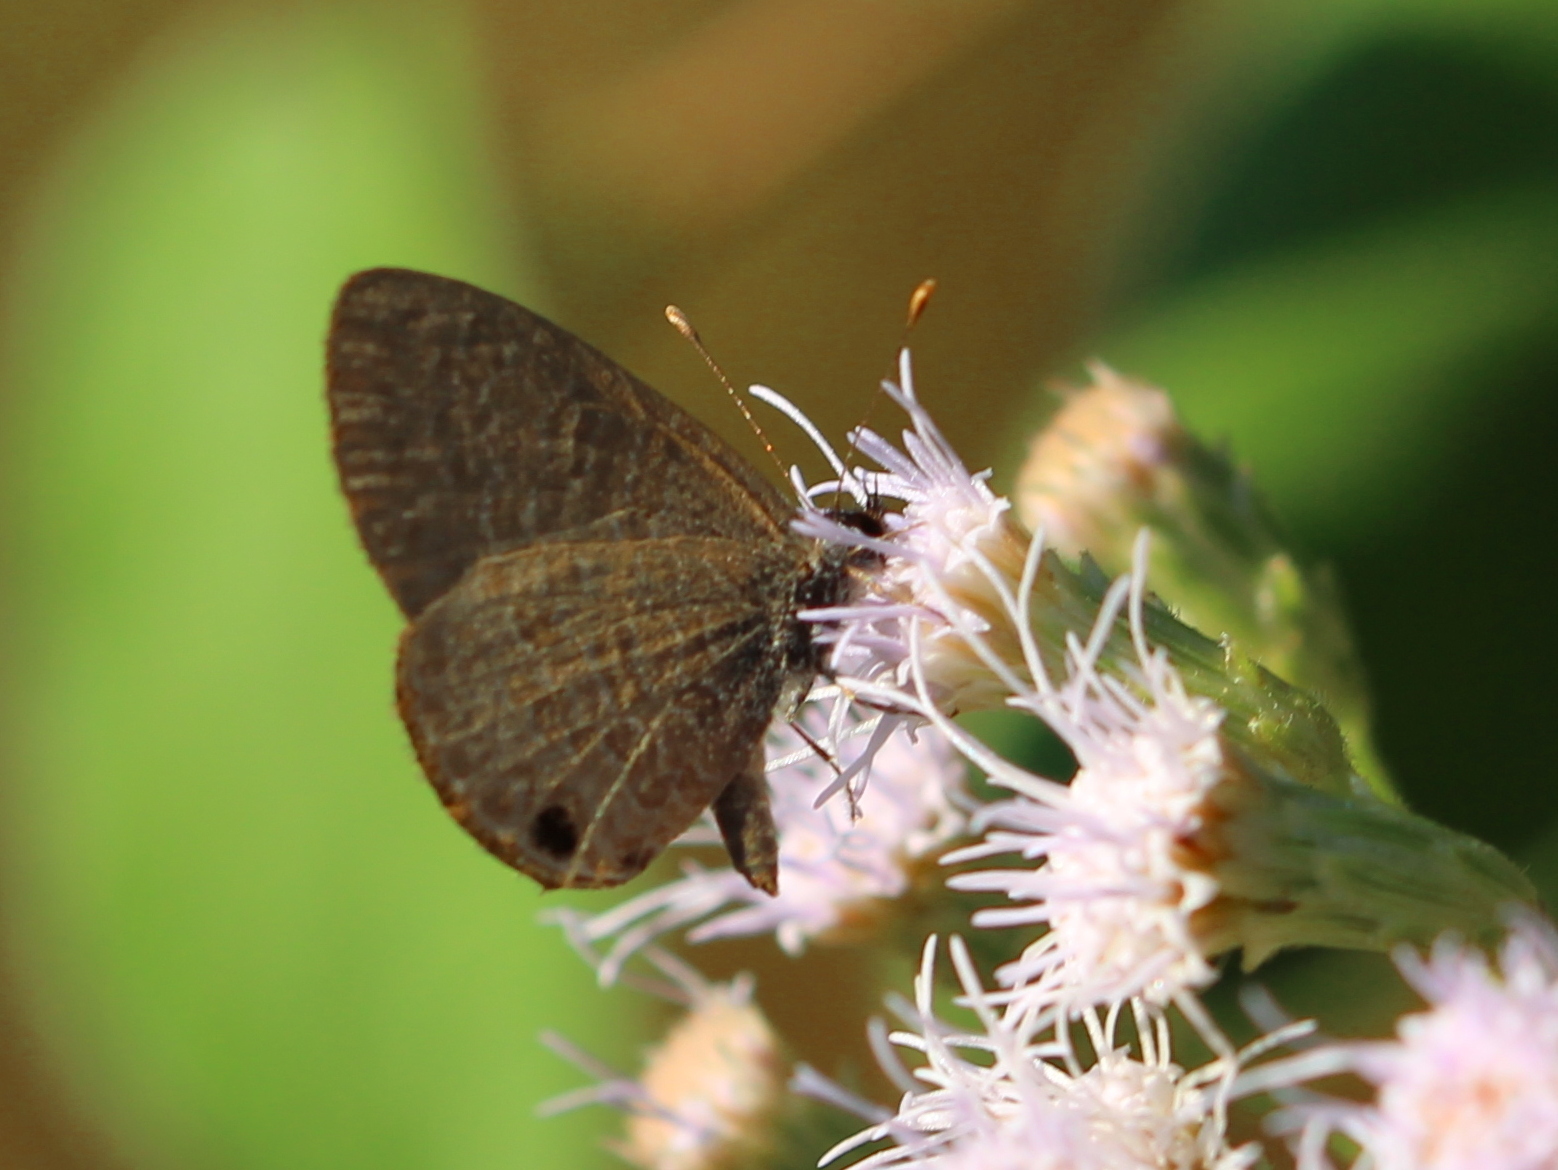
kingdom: Animalia
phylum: Arthropoda
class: Insecta
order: Lepidoptera
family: Lycaenidae
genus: Prosotas
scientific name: Prosotas nora
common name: Common line blue
